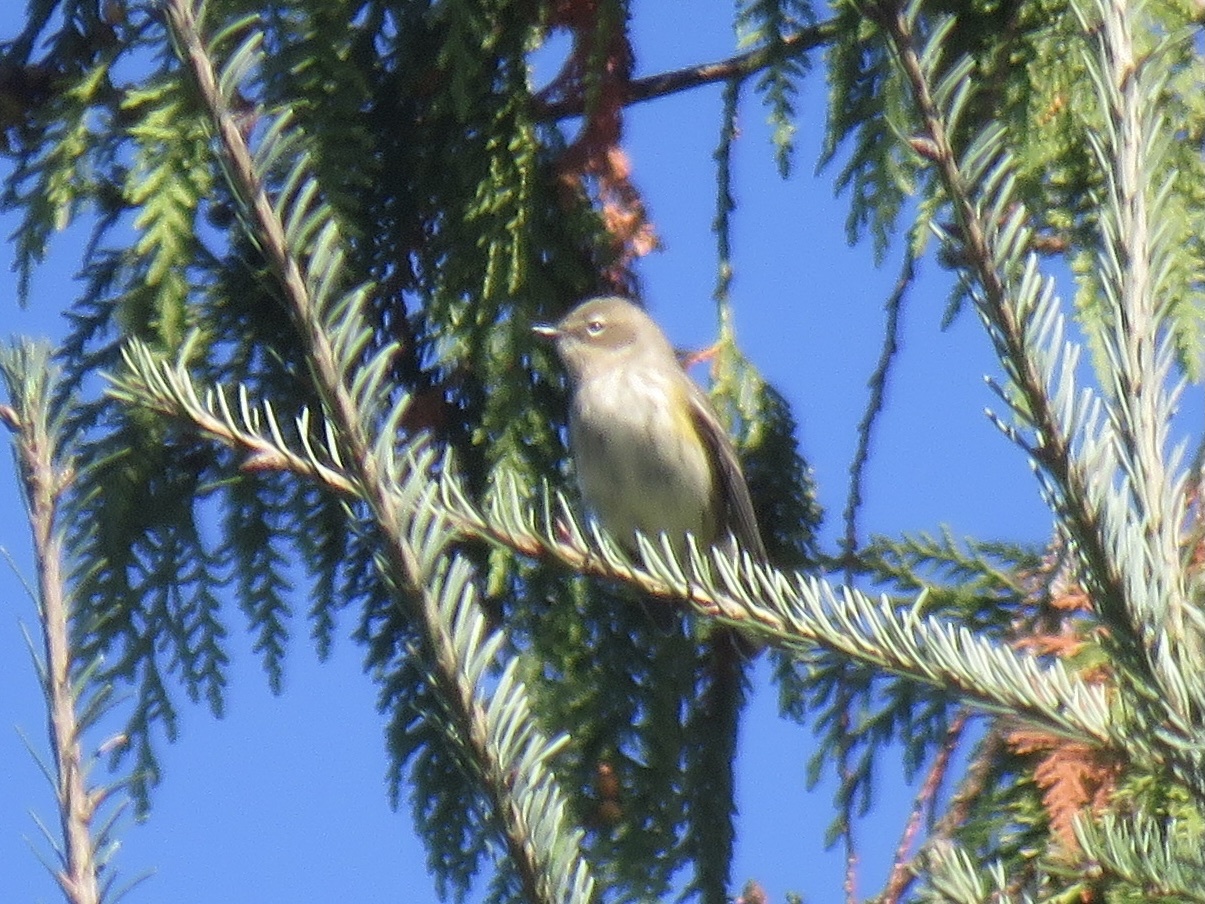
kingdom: Animalia
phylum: Chordata
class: Aves
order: Passeriformes
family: Parulidae
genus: Setophaga
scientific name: Setophaga coronata
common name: Myrtle warbler
